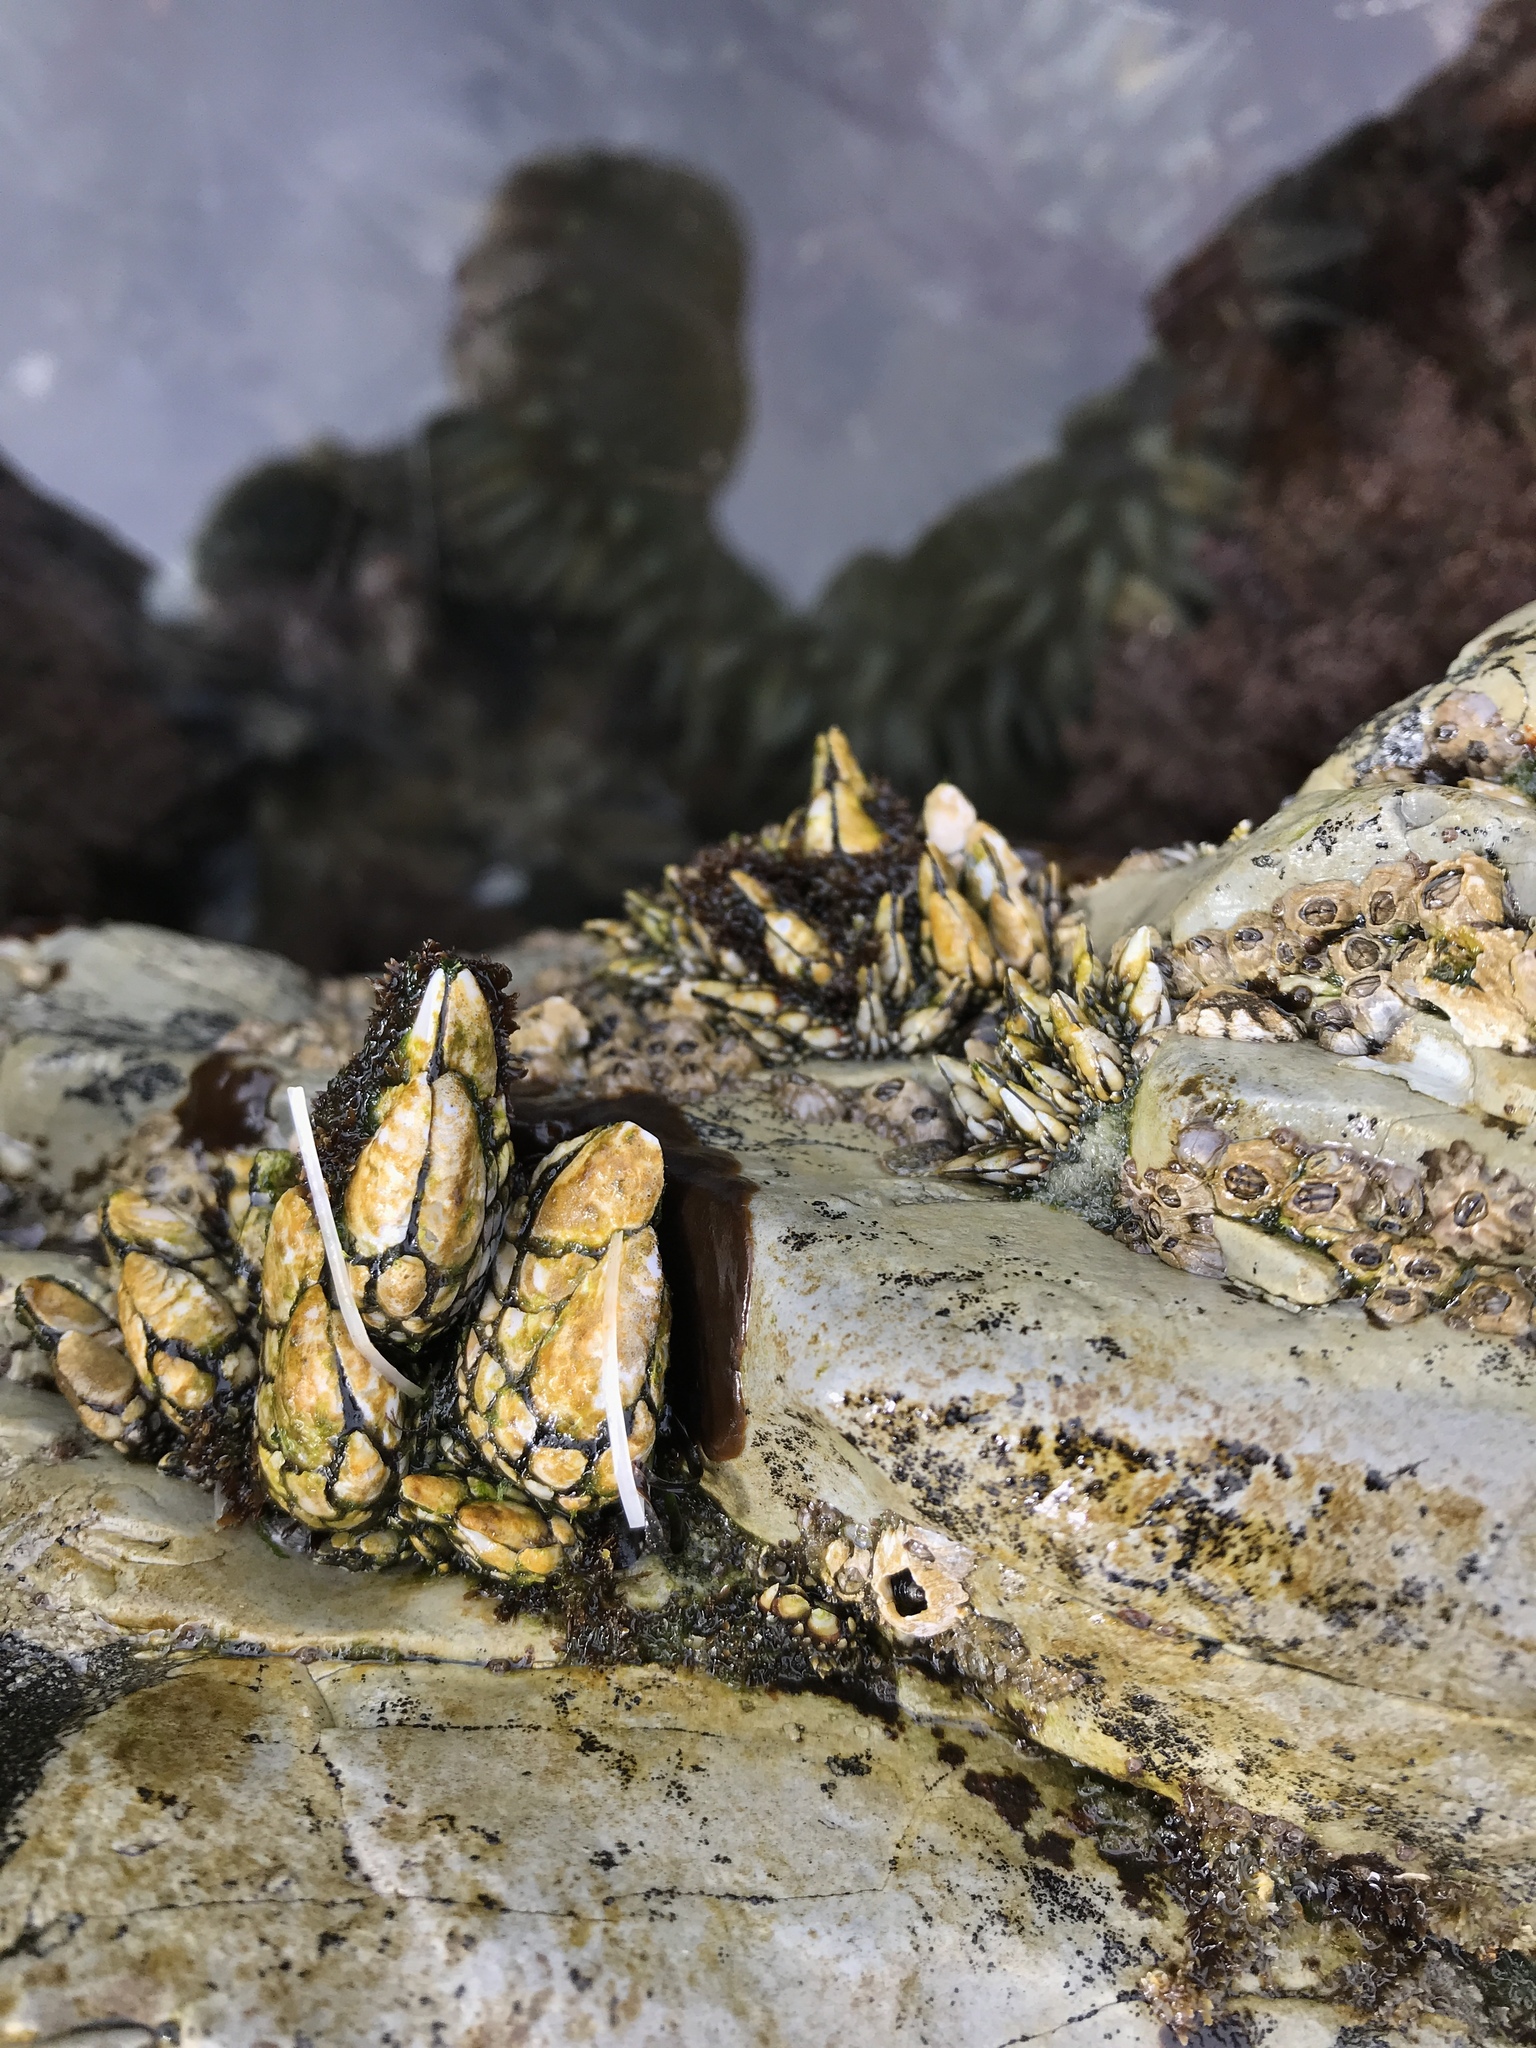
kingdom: Animalia
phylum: Arthropoda
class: Maxillopoda
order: Pedunculata
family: Pollicipedidae
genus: Pollicipes
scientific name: Pollicipes polymerus
